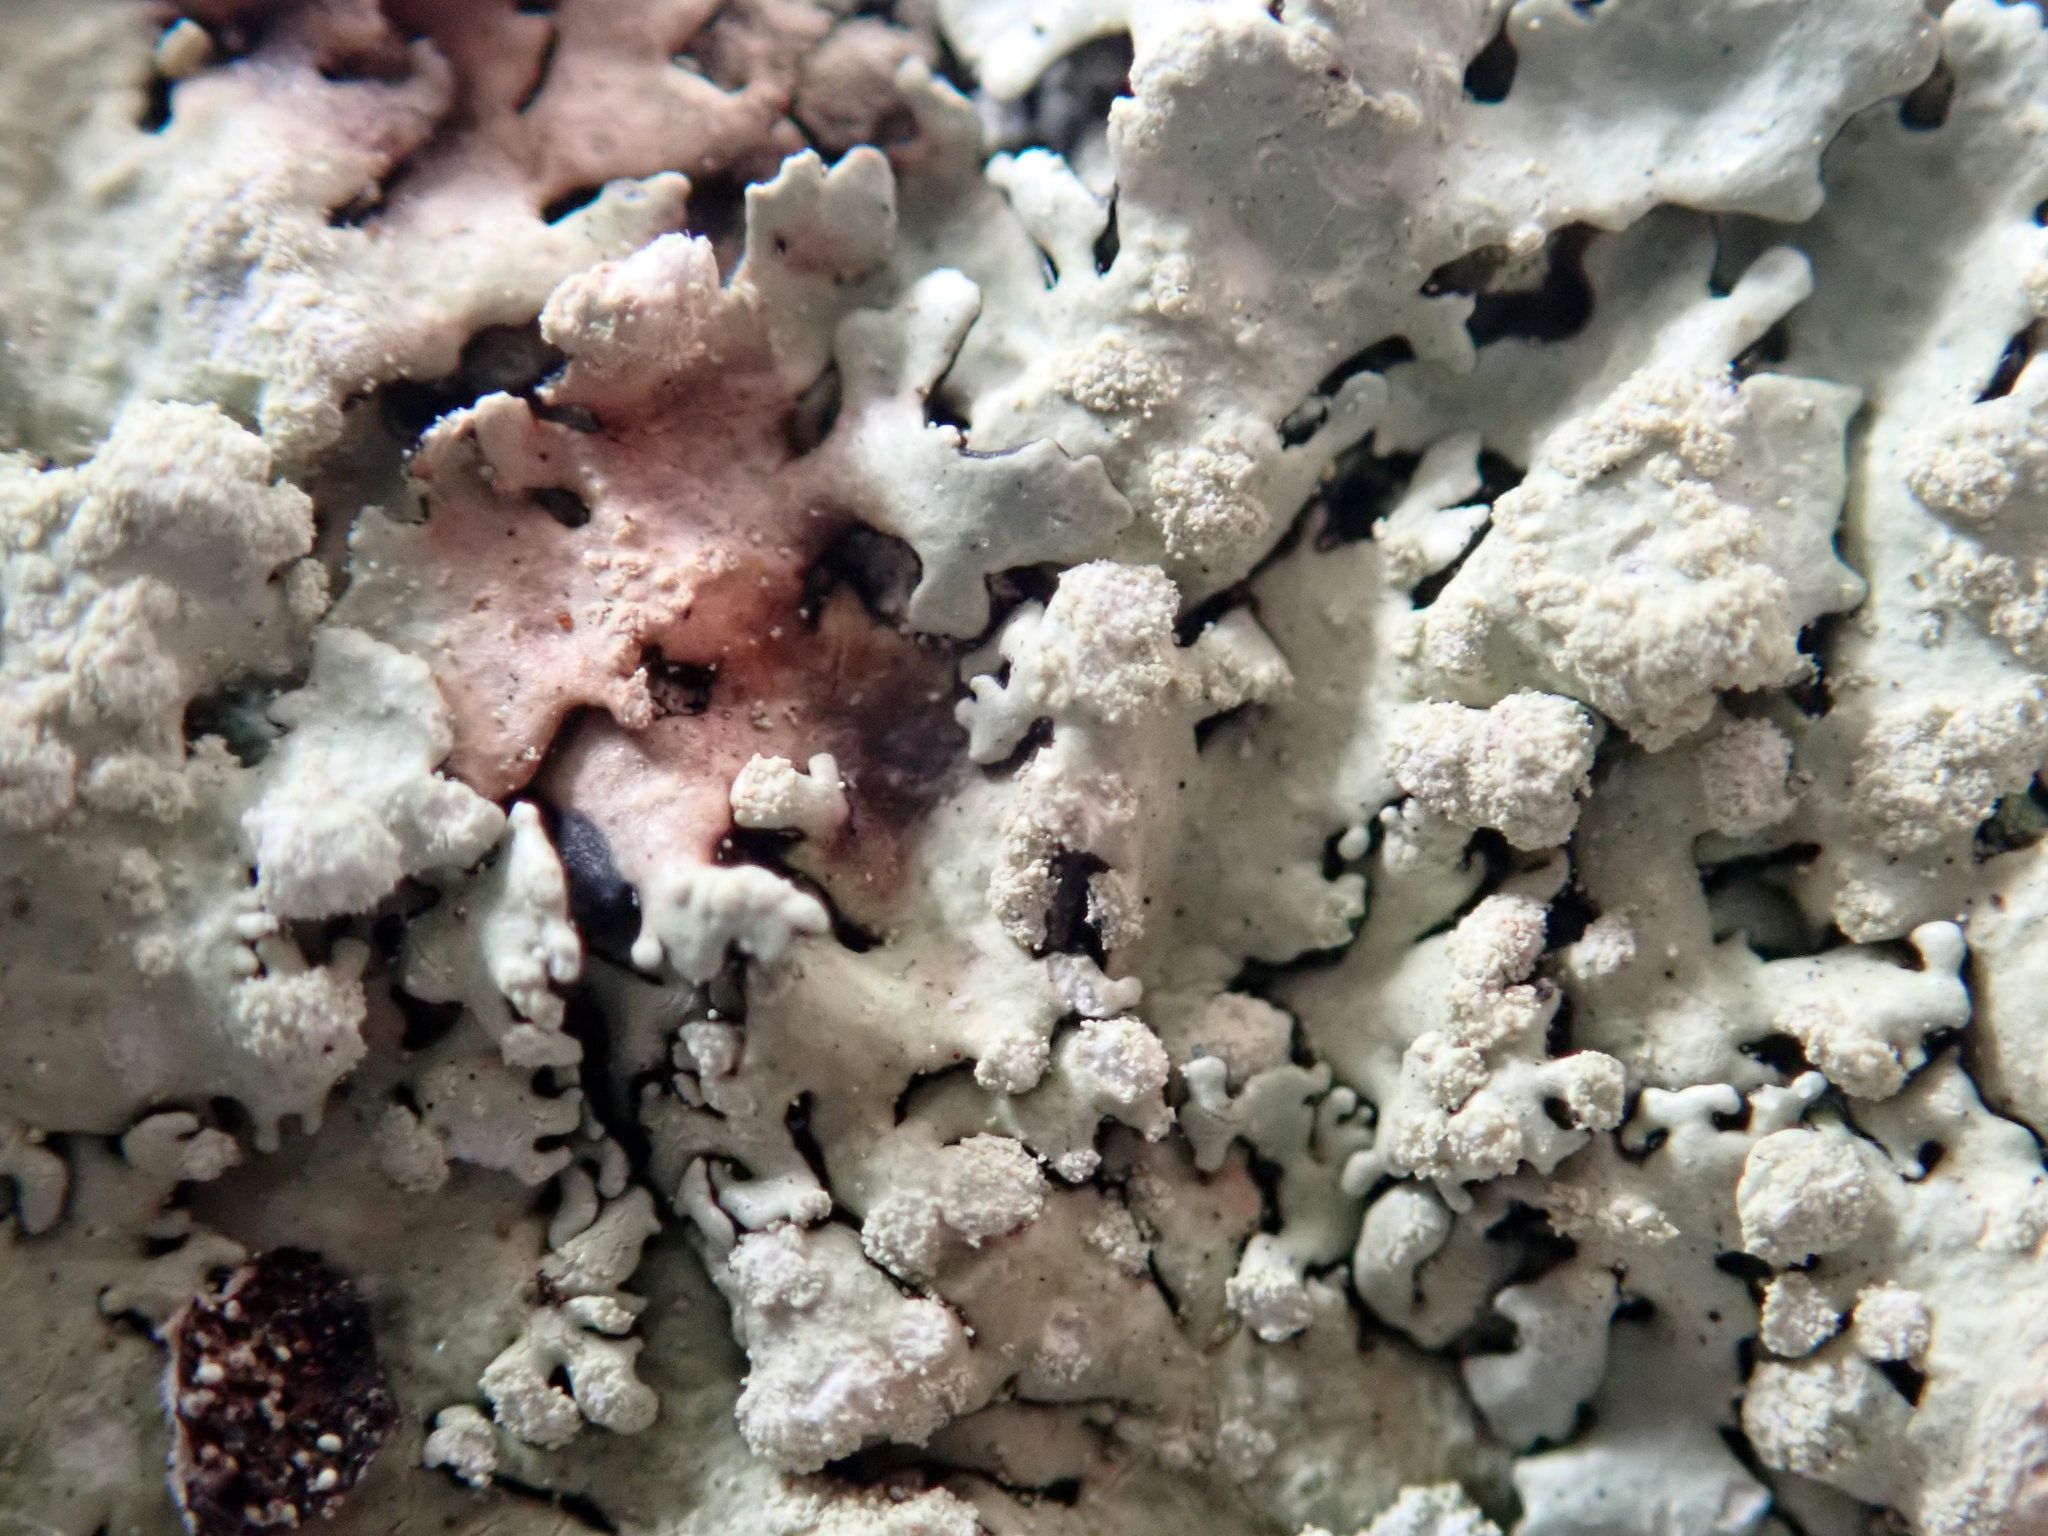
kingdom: Fungi
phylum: Ascomycota
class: Lecanoromycetes
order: Lecanorales
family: Parmeliaceae
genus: Flavoparmelia
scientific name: Flavoparmelia soredians
